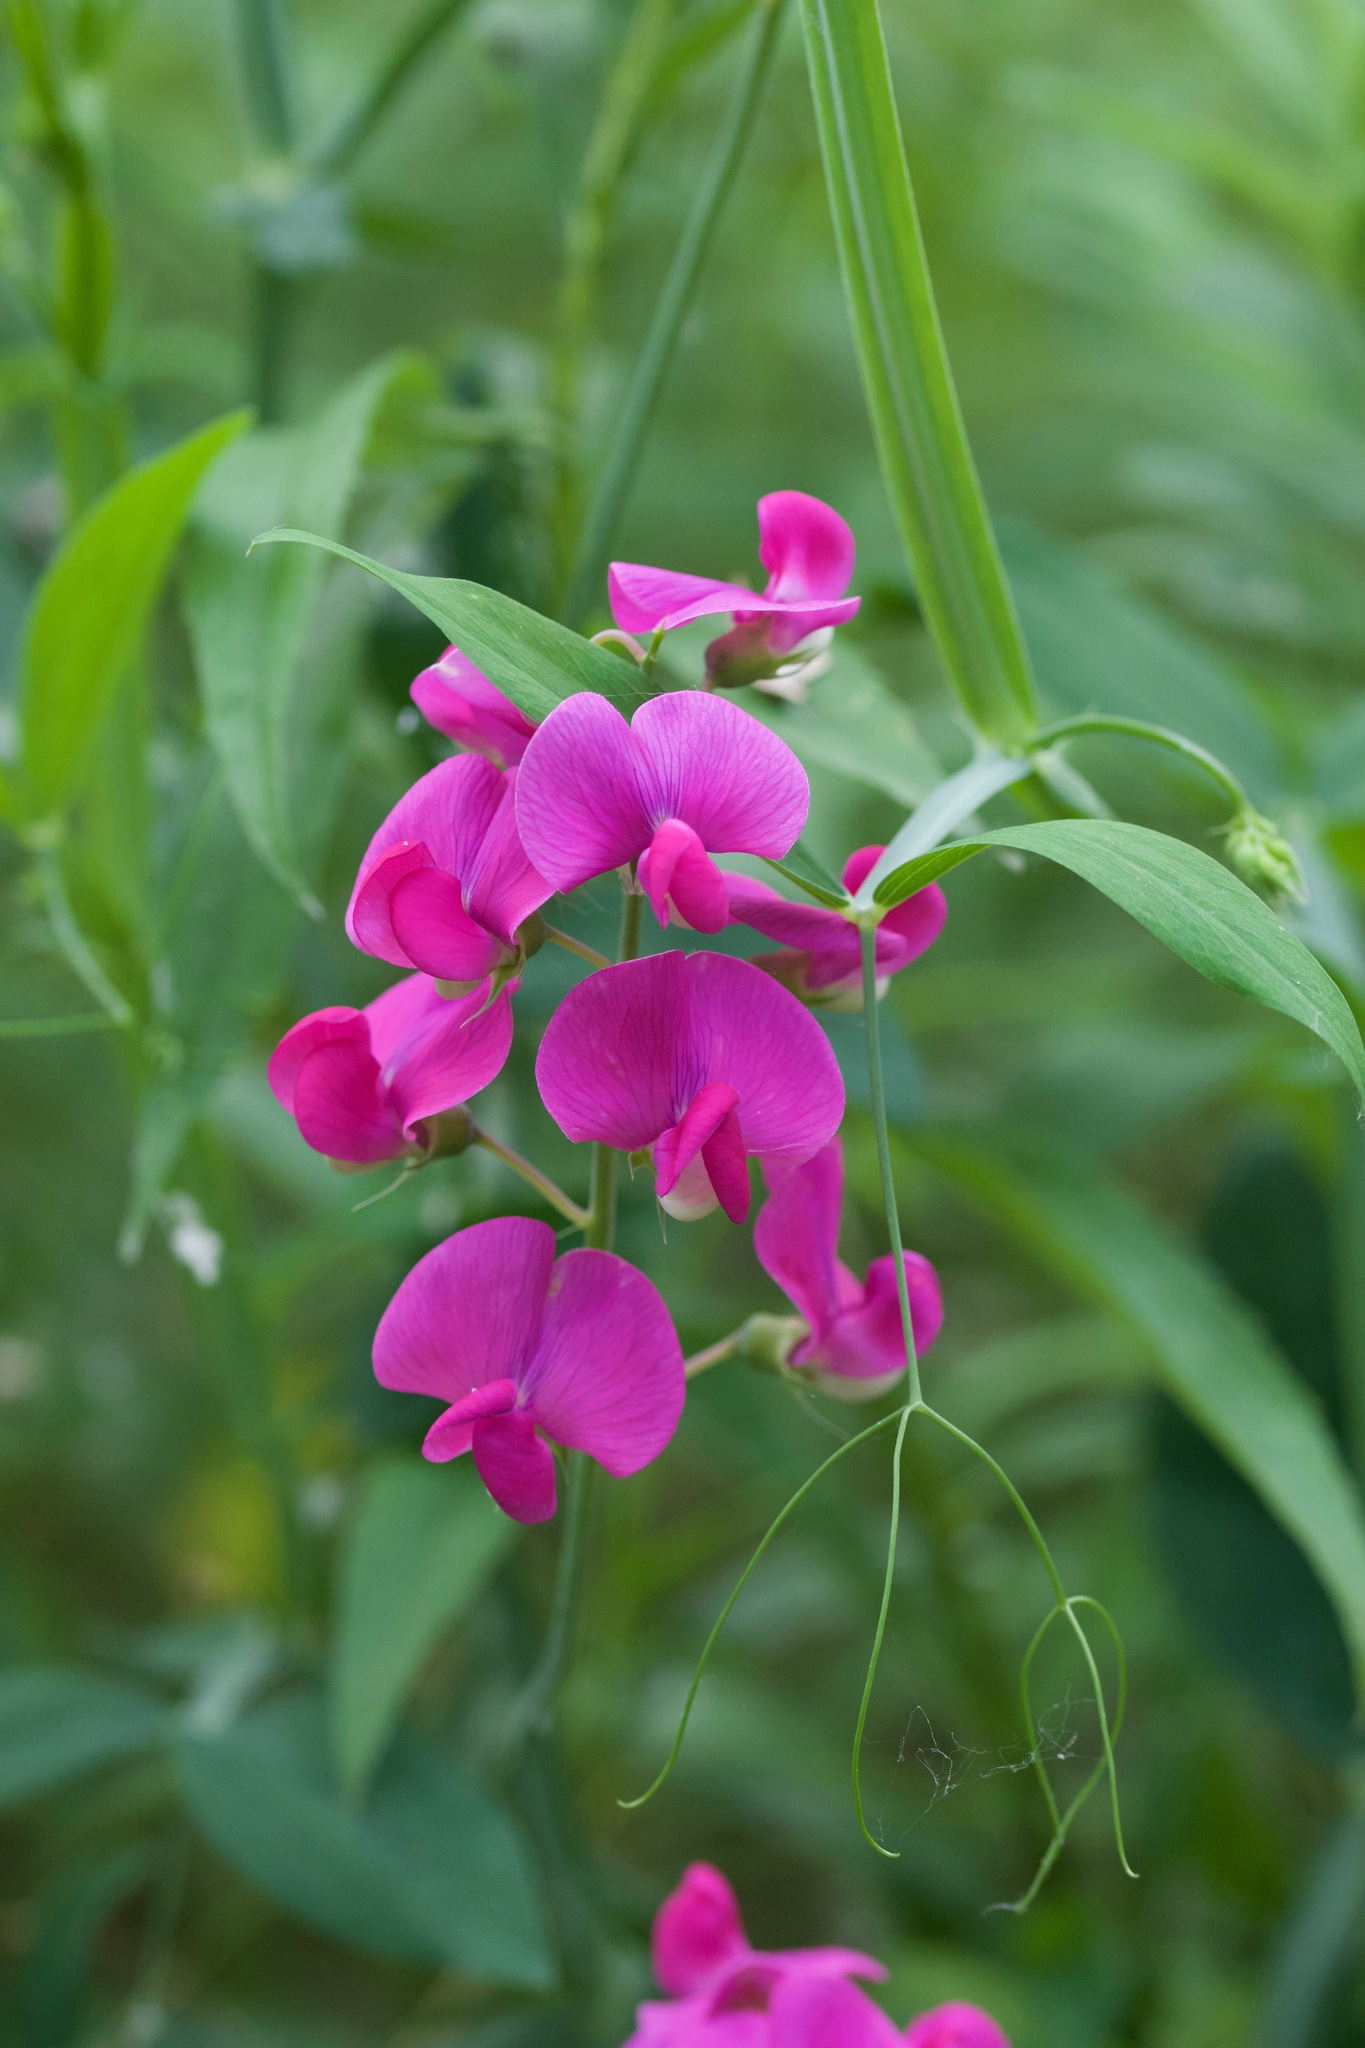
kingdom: Plantae
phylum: Tracheophyta
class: Magnoliopsida
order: Fabales
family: Fabaceae
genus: Lathyrus
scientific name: Lathyrus latifolius
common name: Perennial pea
